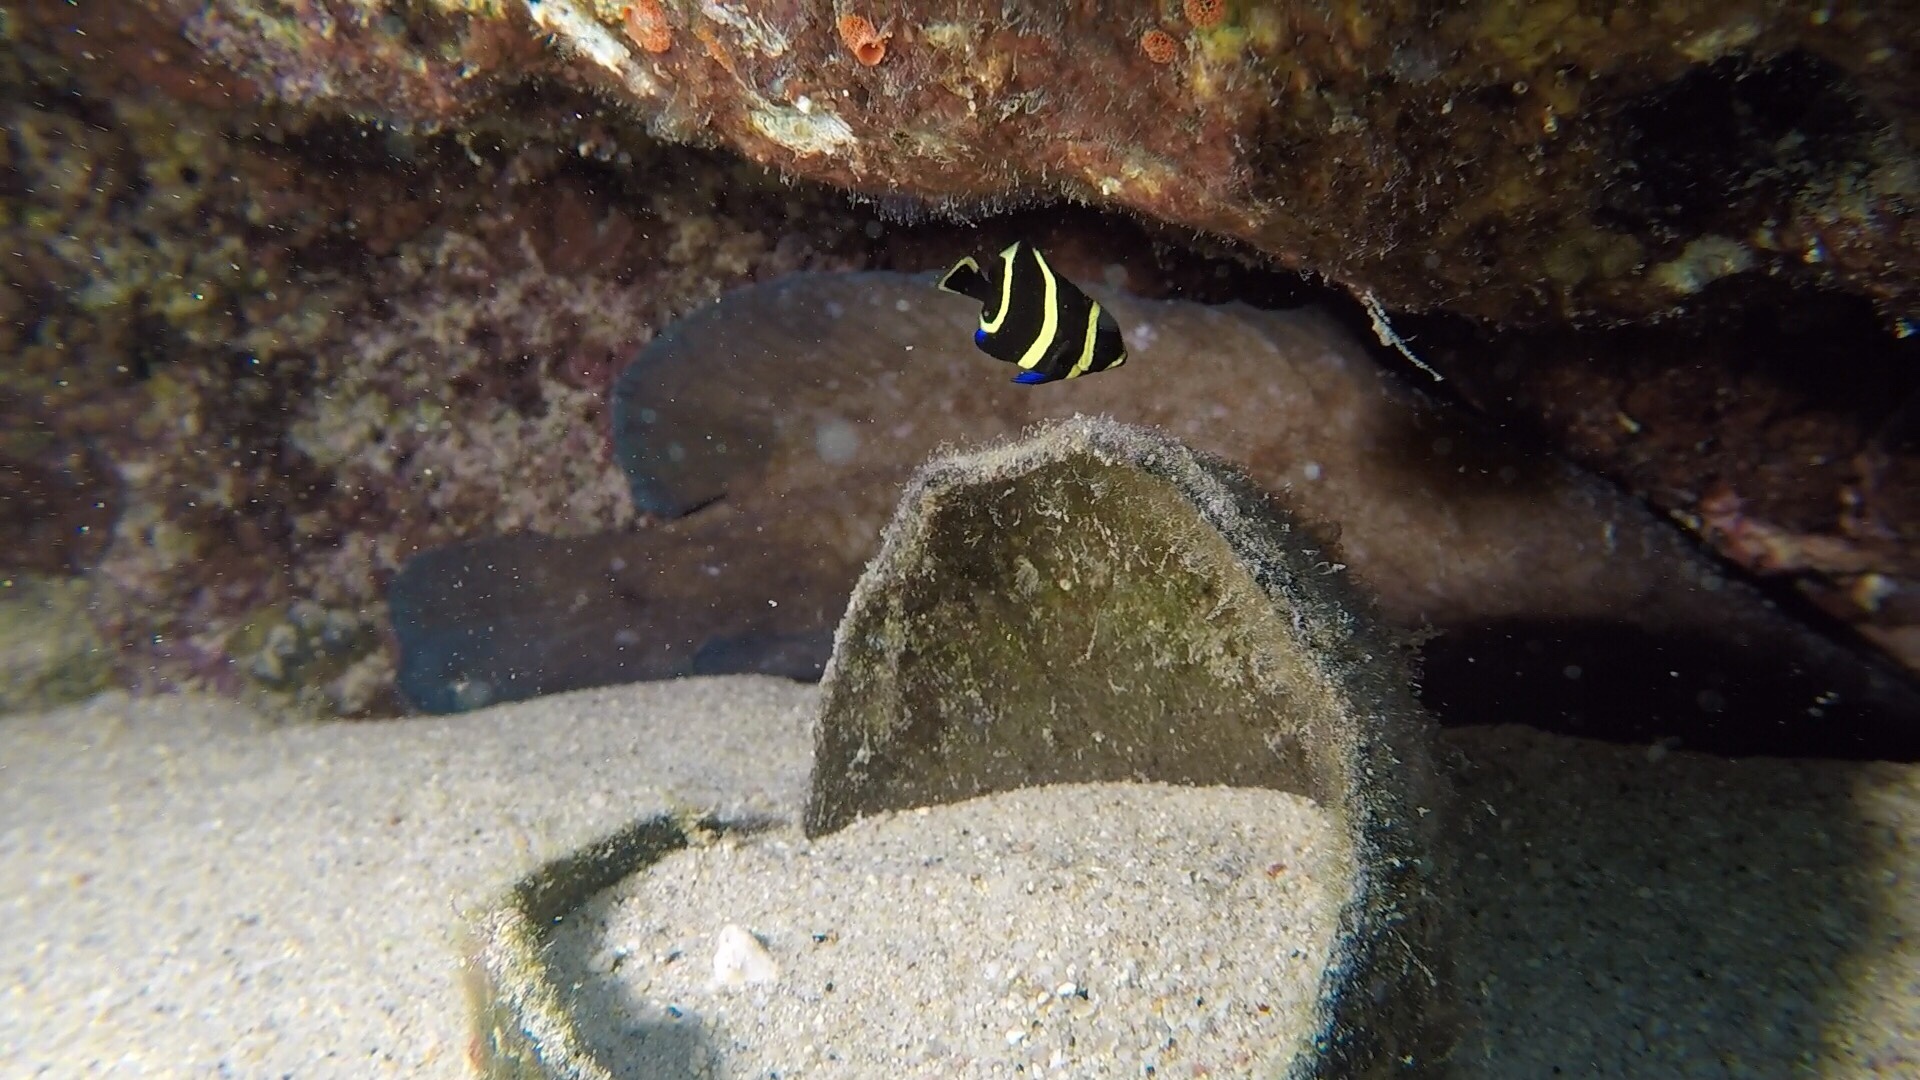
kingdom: Animalia
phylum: Chordata
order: Perciformes
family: Pomacanthidae
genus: Pomacanthus
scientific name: Pomacanthus paru
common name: French angelfish
